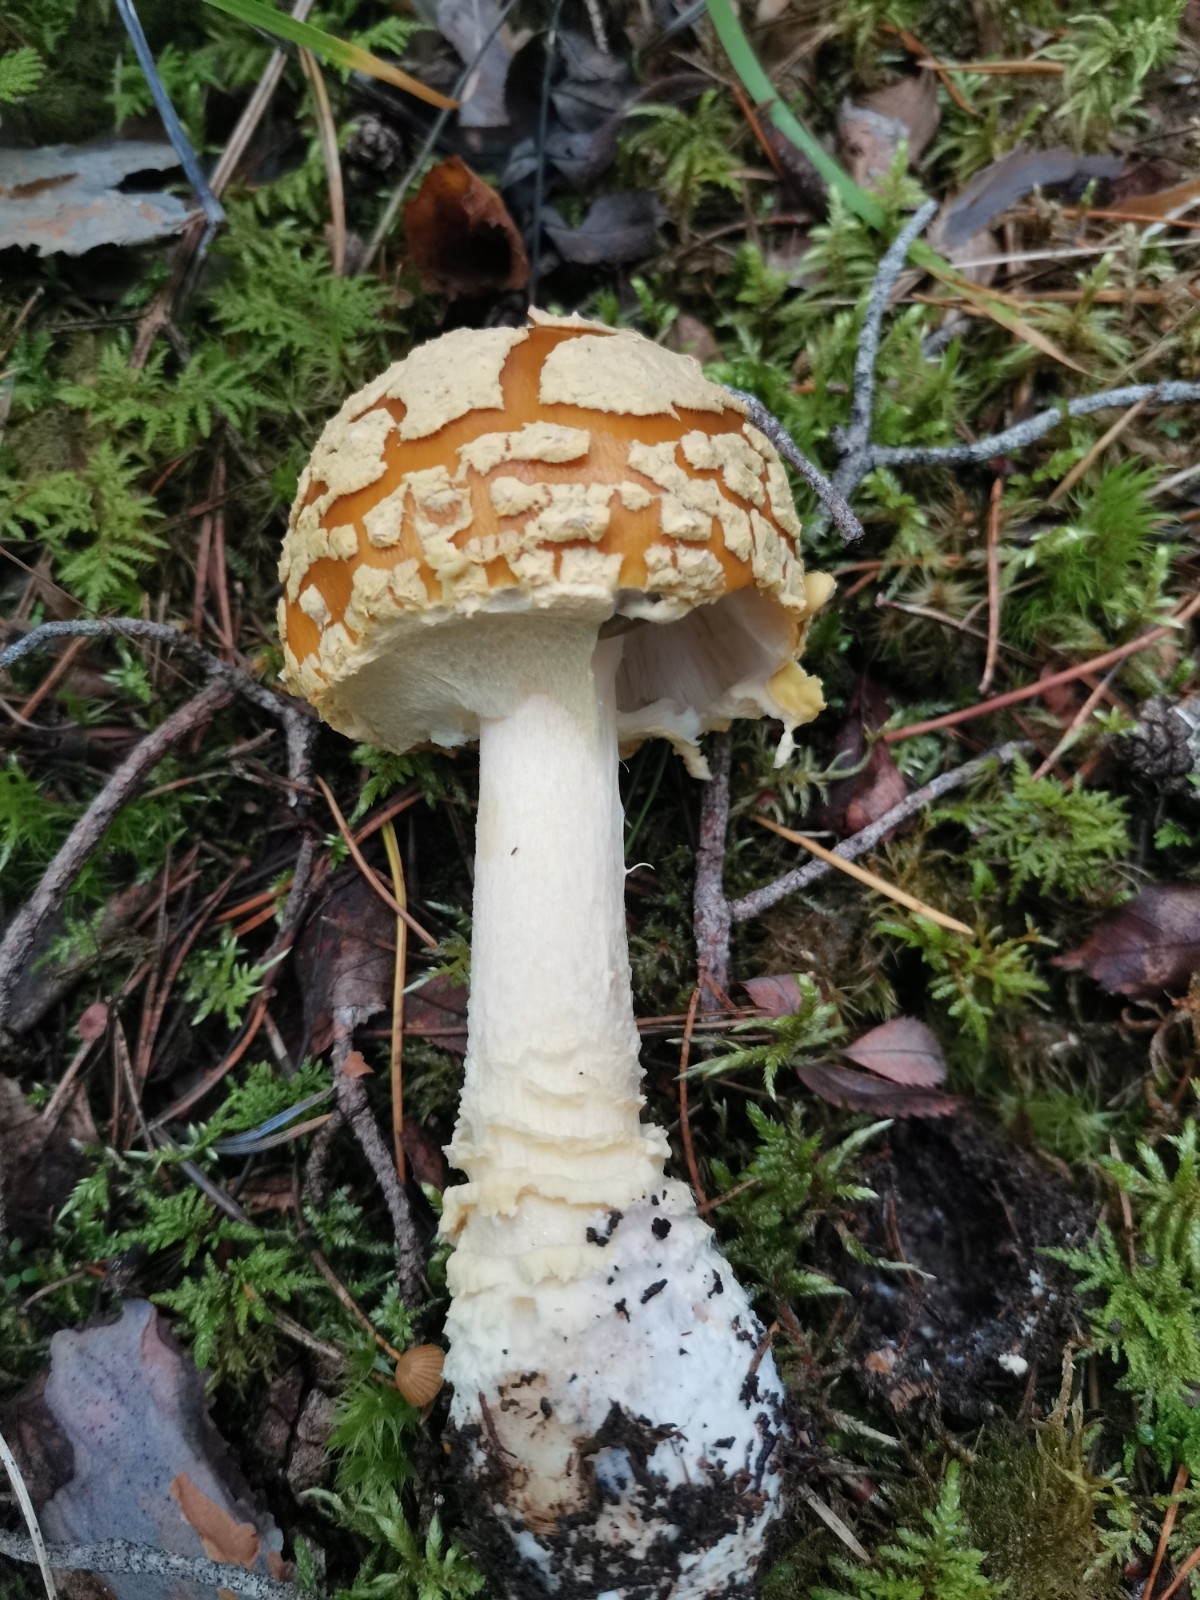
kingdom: Fungi
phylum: Basidiomycota
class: Agaricomycetes
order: Agaricales
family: Amanitaceae
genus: Amanita
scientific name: Amanita regalis
